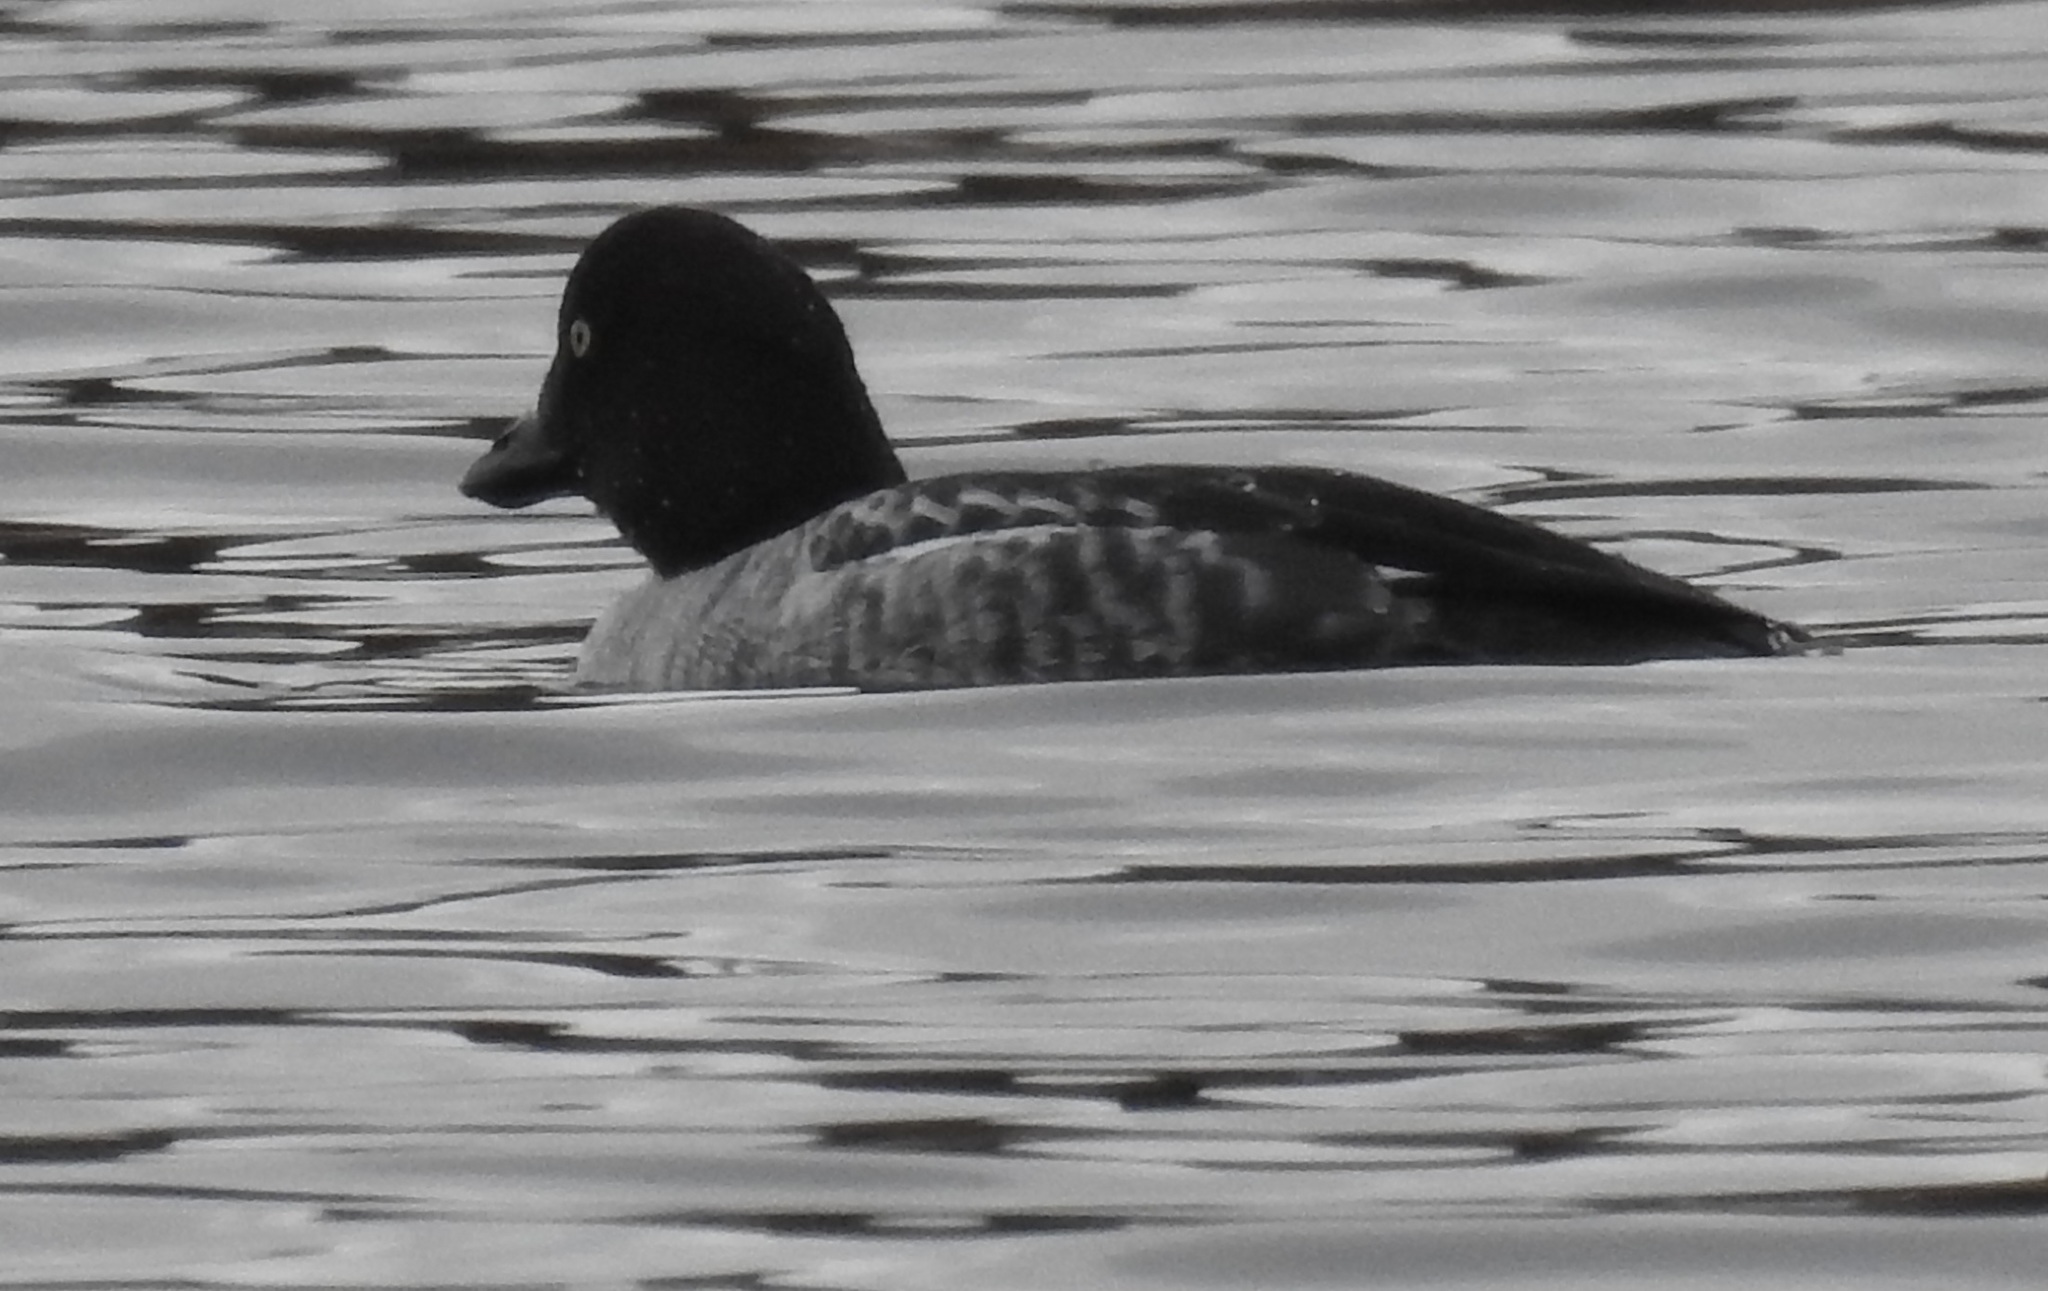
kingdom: Animalia
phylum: Chordata
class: Aves
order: Anseriformes
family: Anatidae
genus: Bucephala
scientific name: Bucephala clangula
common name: Common goldeneye
